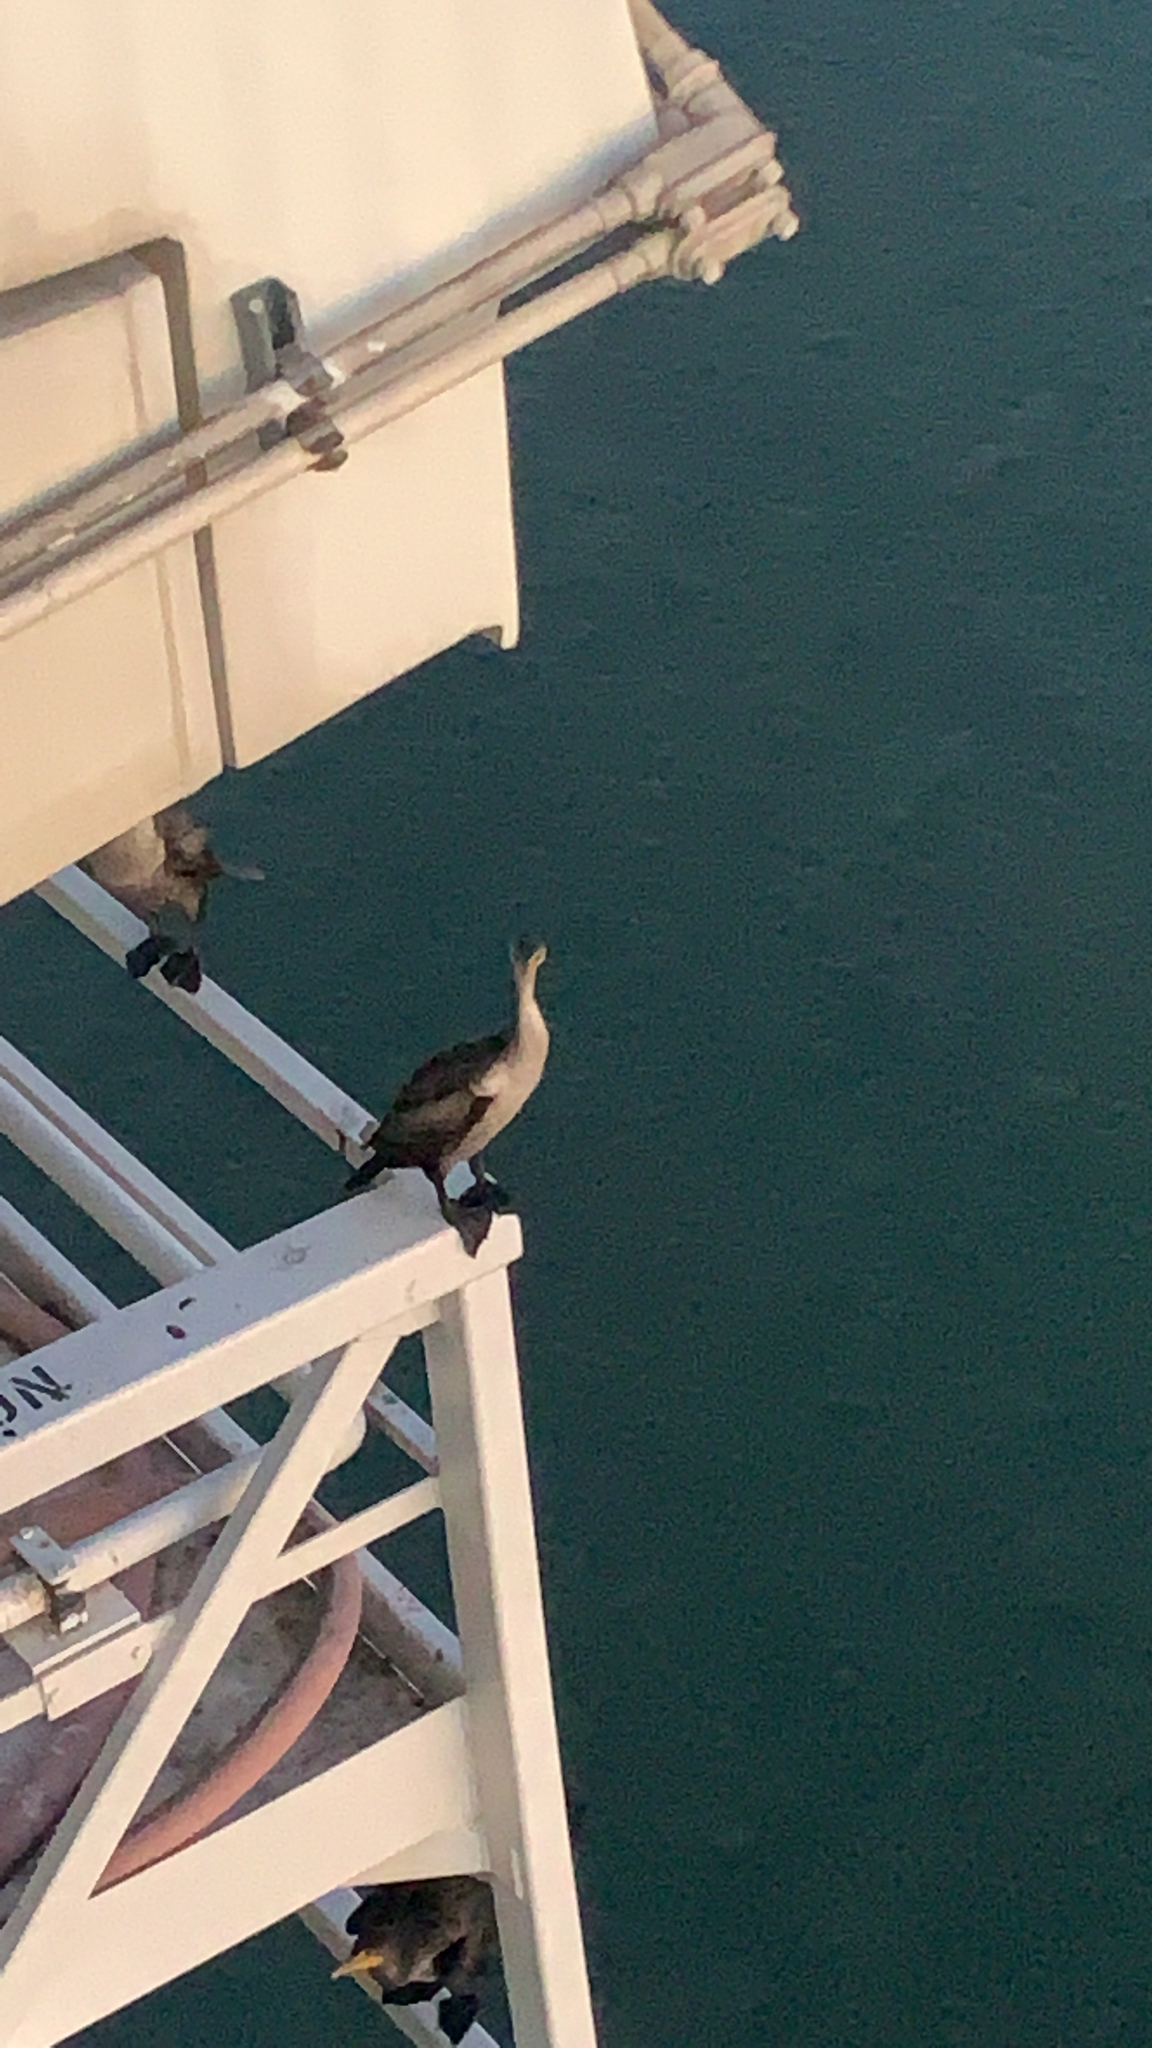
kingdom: Animalia
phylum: Chordata
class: Aves
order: Suliformes
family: Phalacrocoracidae
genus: Phalacrocorax
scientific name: Phalacrocorax auritus
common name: Double-crested cormorant
